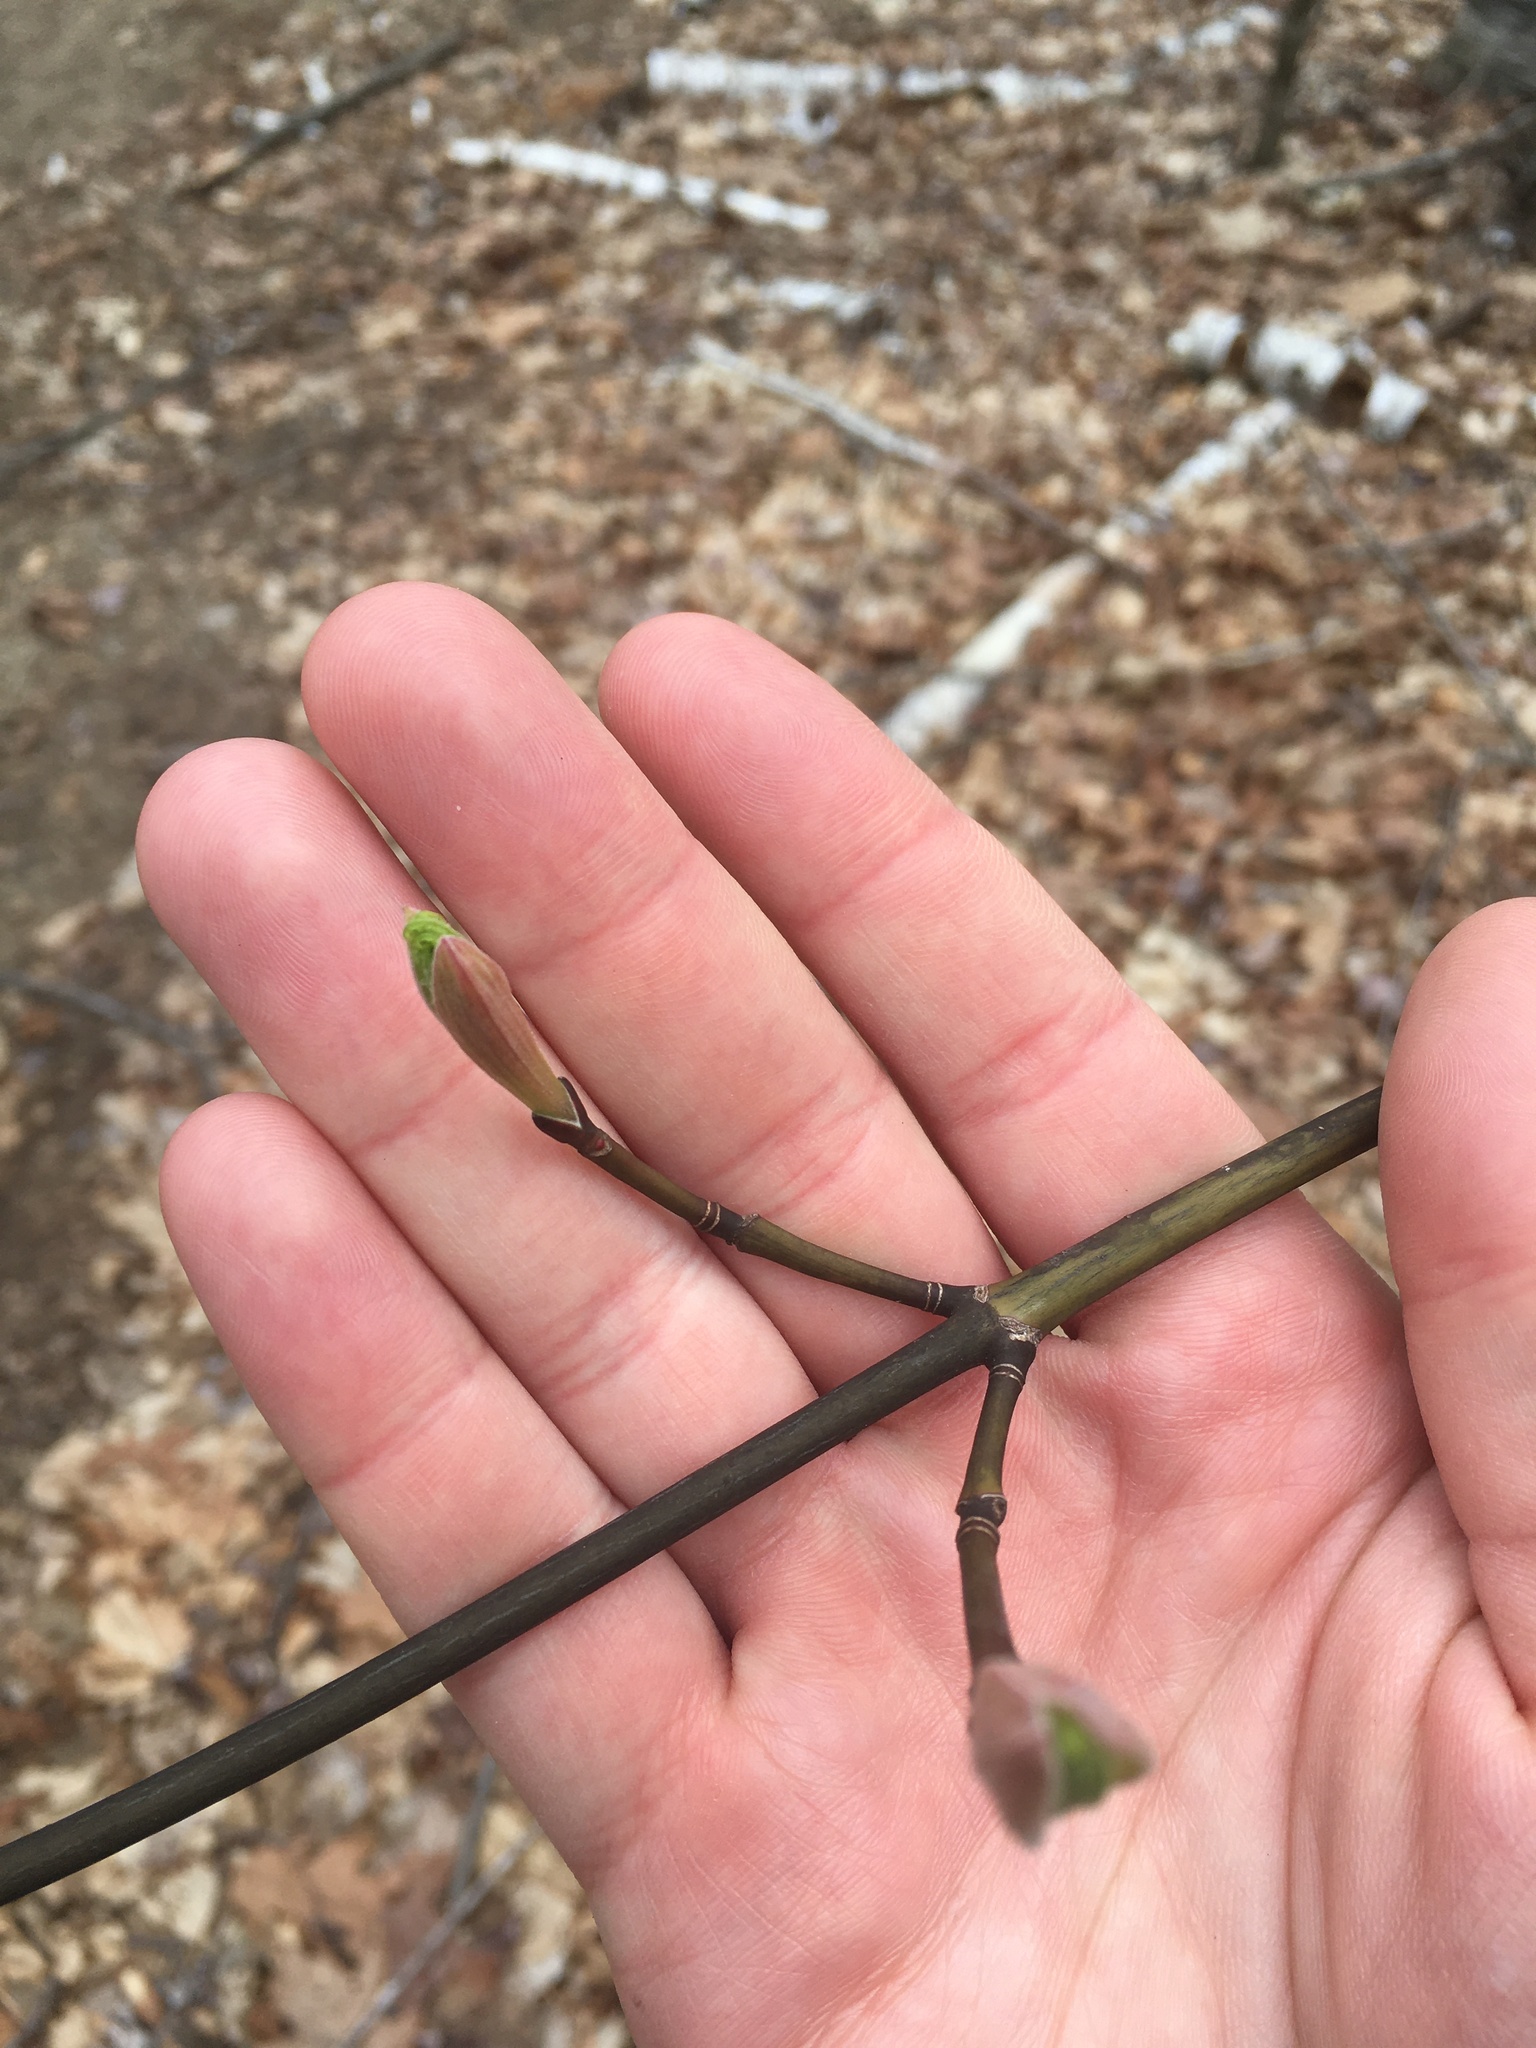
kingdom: Plantae
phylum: Tracheophyta
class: Magnoliopsida
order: Sapindales
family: Sapindaceae
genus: Acer
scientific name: Acer pensylvanicum
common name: Moosewood
